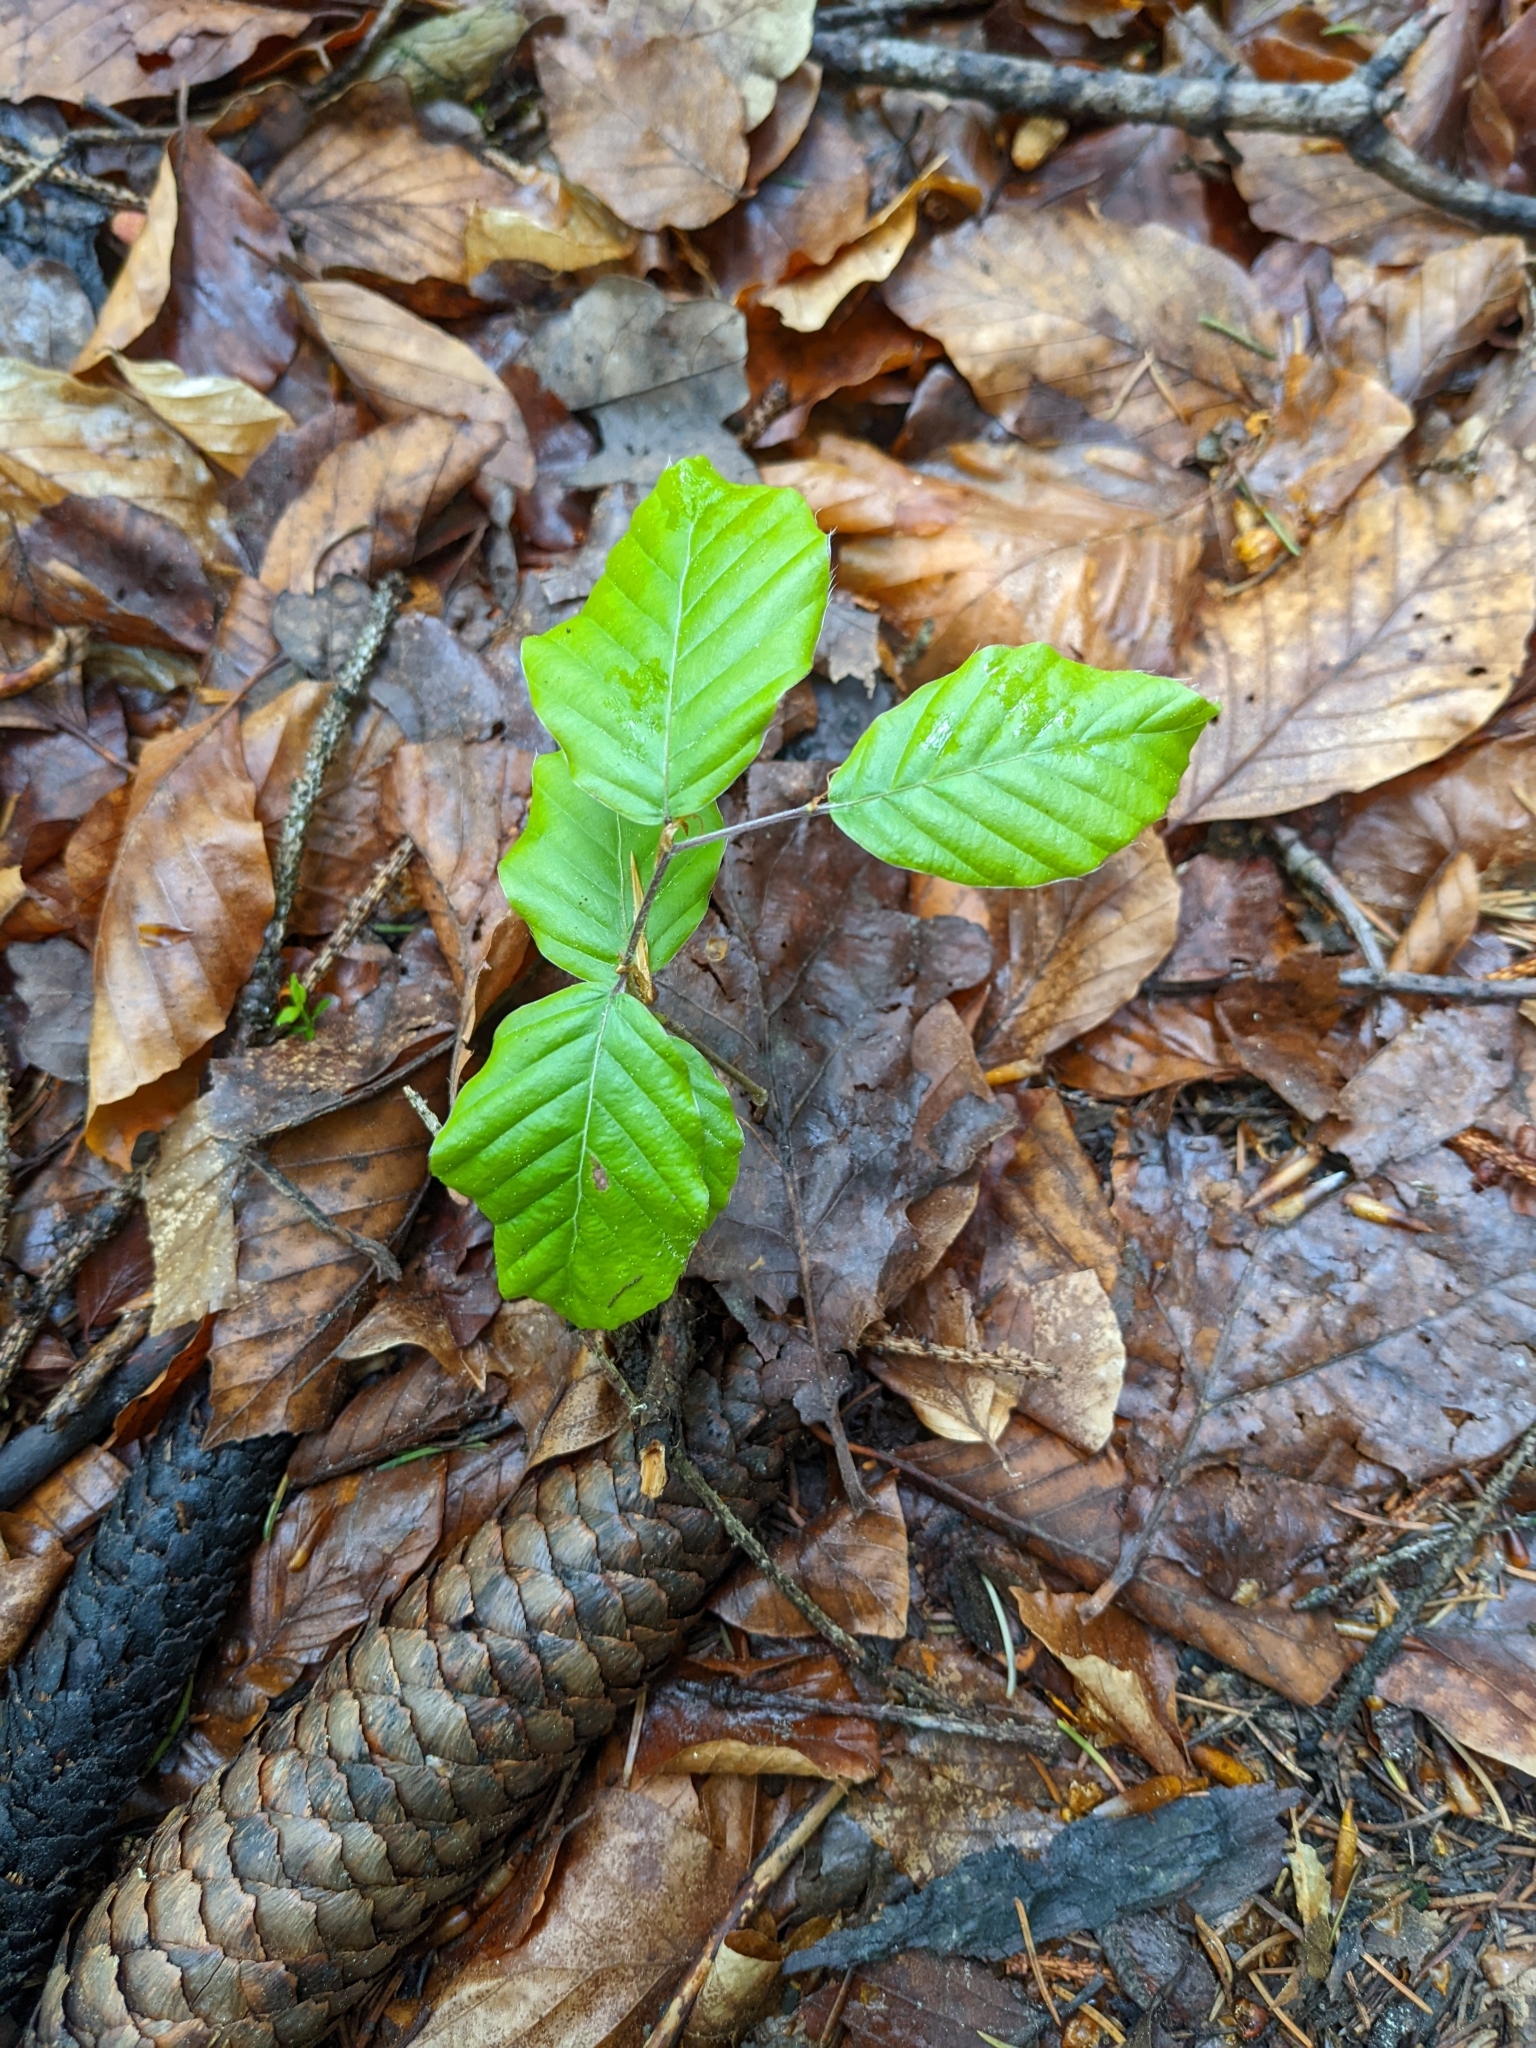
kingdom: Plantae
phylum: Tracheophyta
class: Magnoliopsida
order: Fagales
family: Fagaceae
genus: Fagus
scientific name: Fagus sylvatica
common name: Beech
